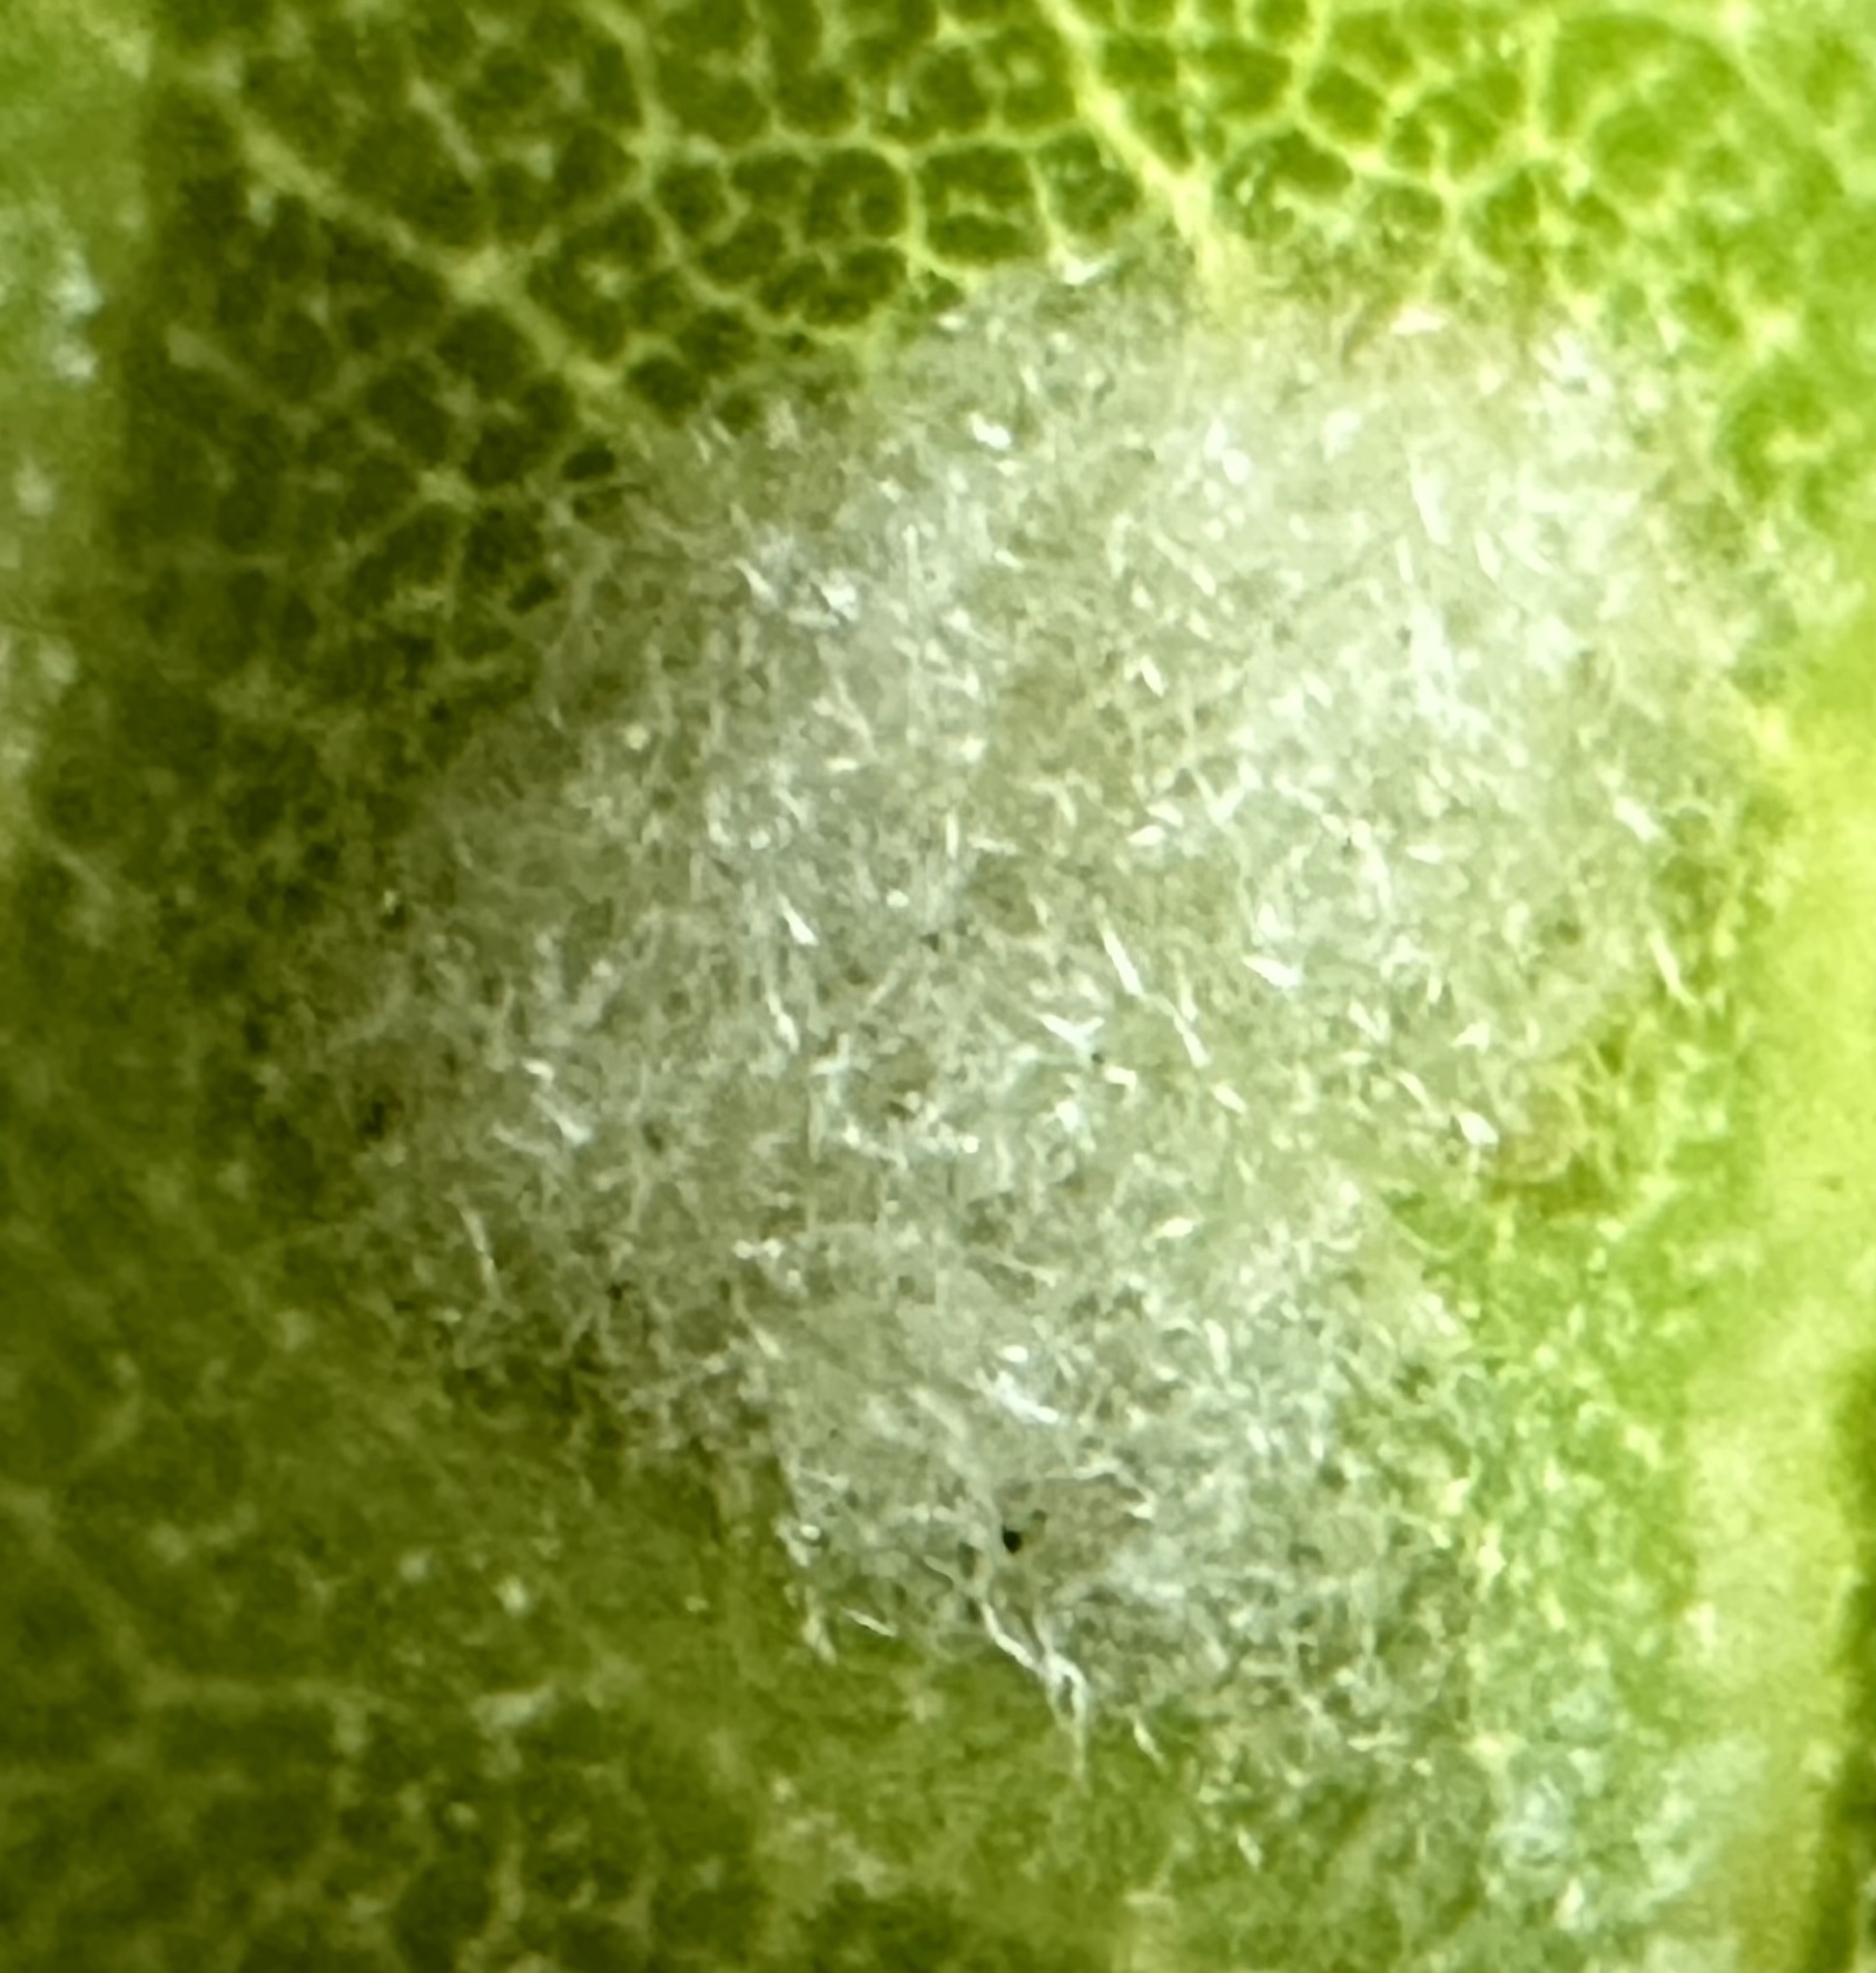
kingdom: Animalia
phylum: Arthropoda
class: Arachnida
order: Trombidiformes
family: Eriophyidae
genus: Aceria
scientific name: Aceria
